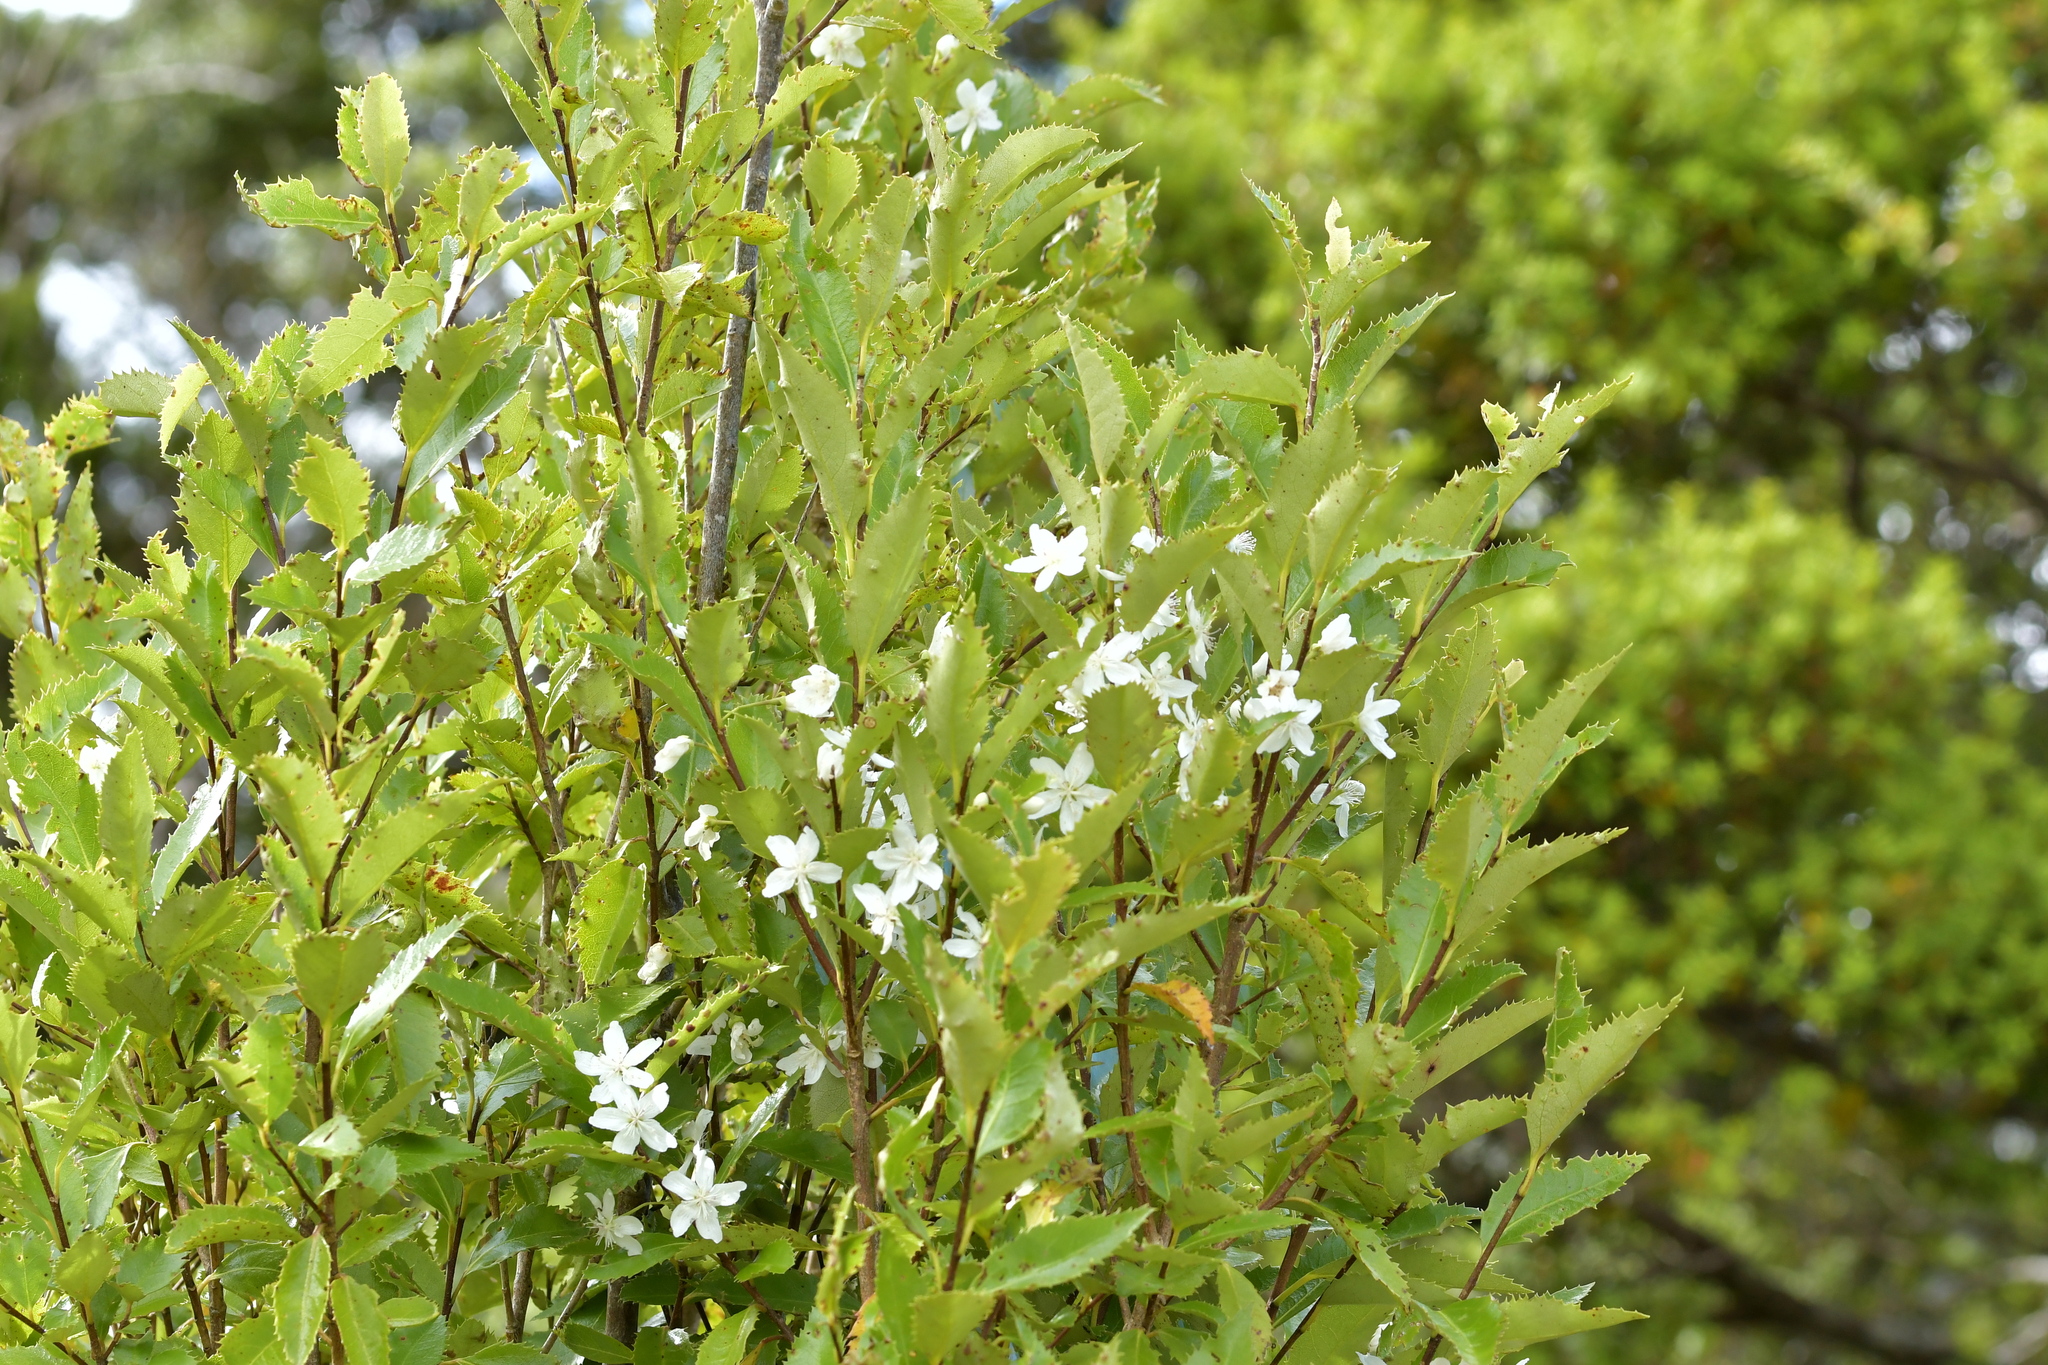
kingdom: Plantae
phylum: Tracheophyta
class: Magnoliopsida
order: Malvales
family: Malvaceae
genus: Hoheria
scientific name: Hoheria ovata
